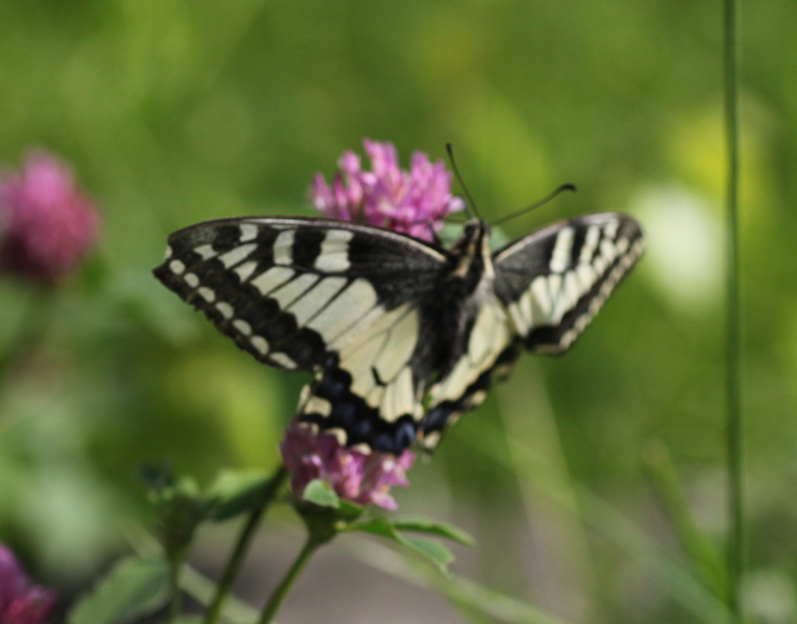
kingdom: Animalia
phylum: Arthropoda
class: Insecta
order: Lepidoptera
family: Papilionidae
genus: Papilio
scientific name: Papilio machaon
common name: Swallowtail
